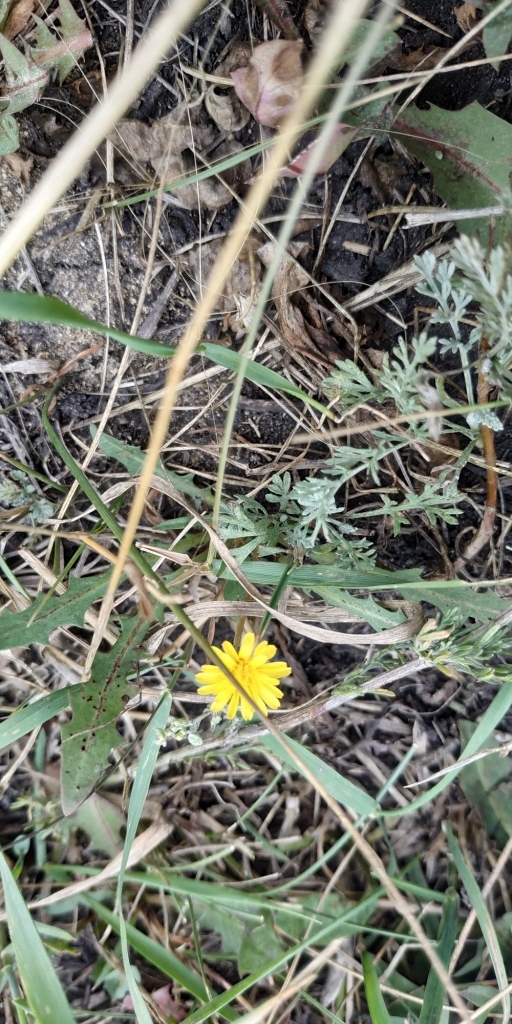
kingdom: Plantae
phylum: Tracheophyta
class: Magnoliopsida
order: Asterales
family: Asteraceae
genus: Taraxacum
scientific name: Taraxacum bessarabicum
